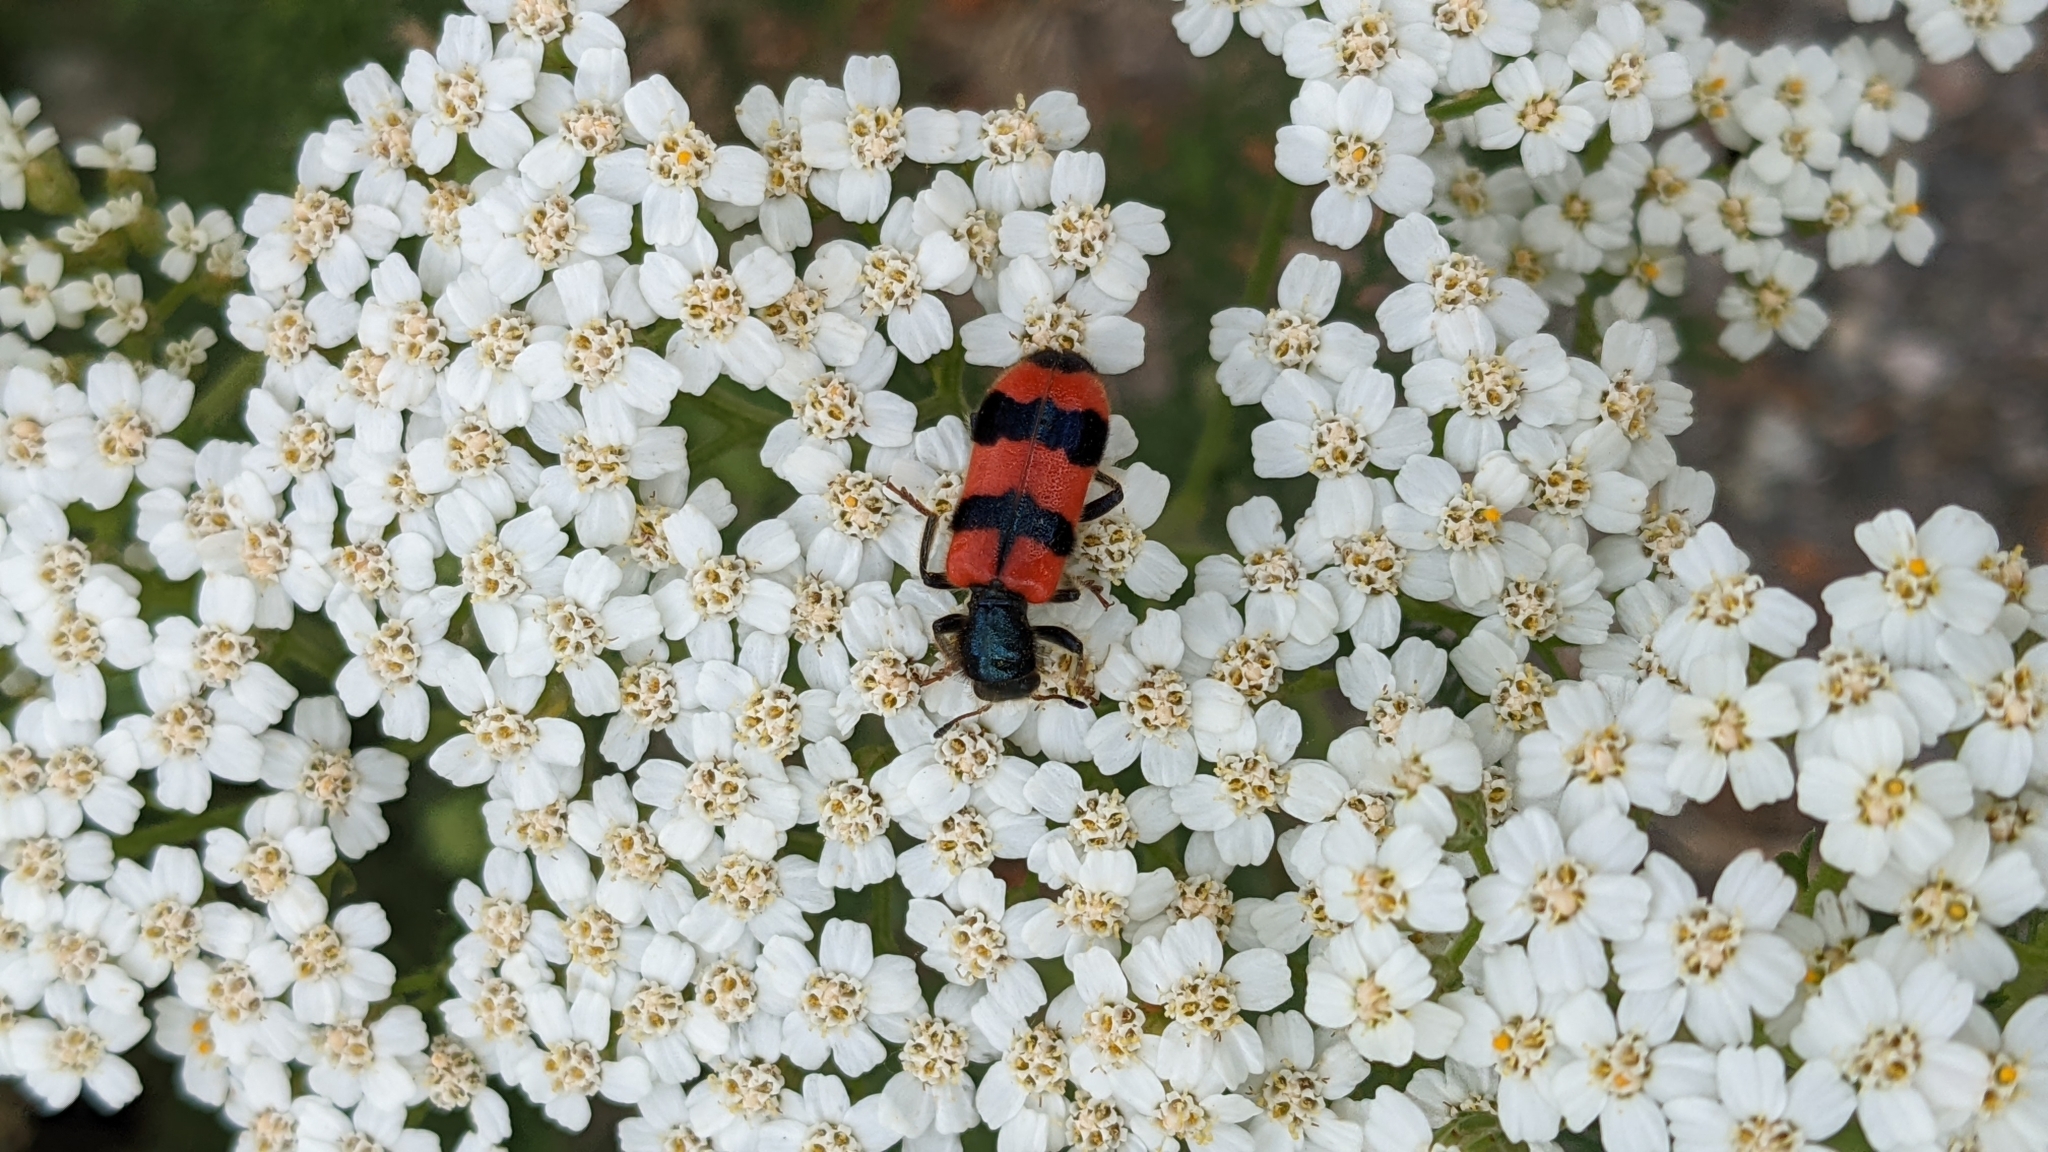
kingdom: Animalia
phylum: Arthropoda
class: Insecta
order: Coleoptera
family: Cleridae
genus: Trichodes
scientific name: Trichodes apiarius
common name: Bee-eating beetle
